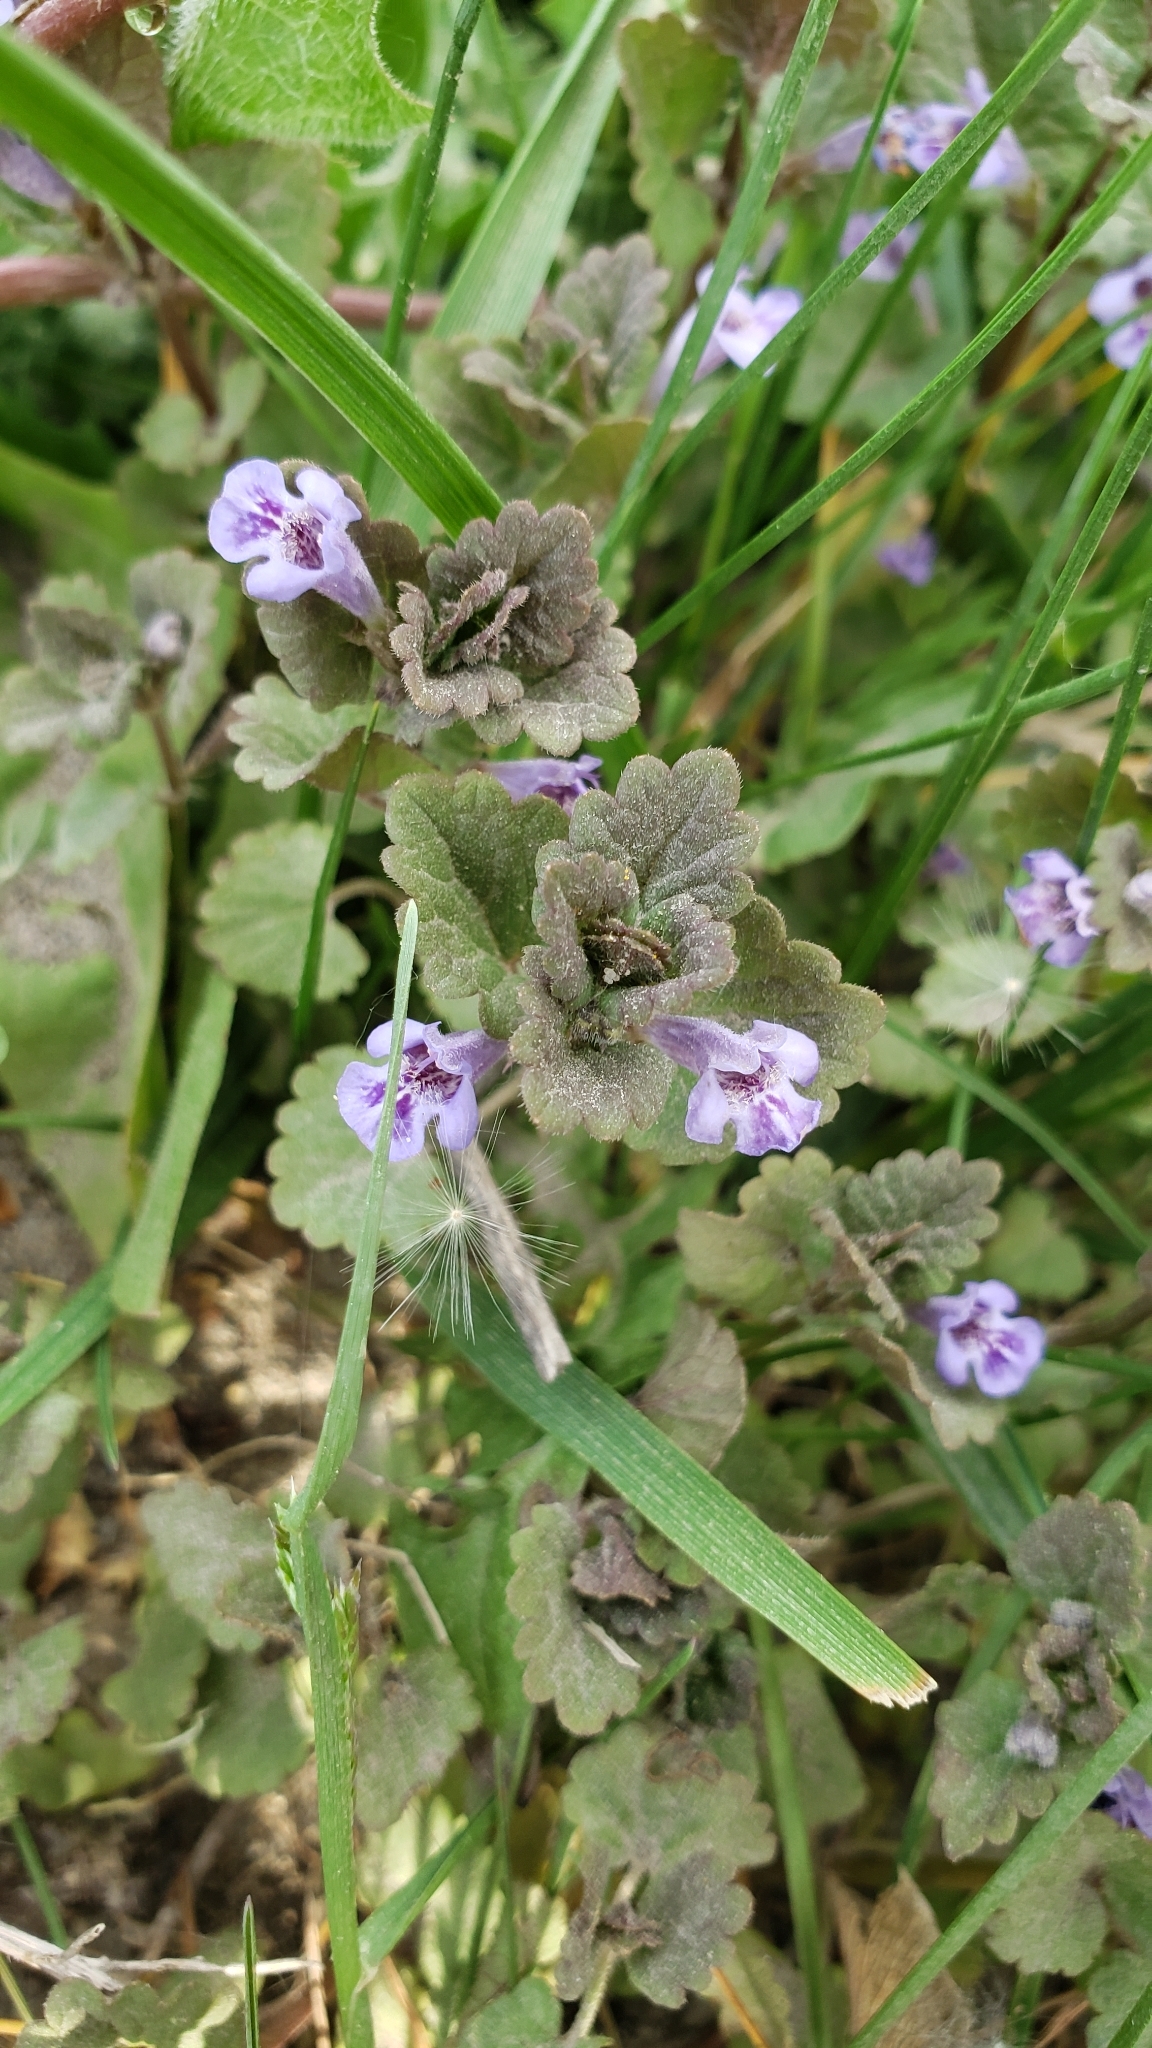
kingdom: Plantae
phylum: Tracheophyta
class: Magnoliopsida
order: Lamiales
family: Lamiaceae
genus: Glechoma
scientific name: Glechoma hederacea
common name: Ground ivy
